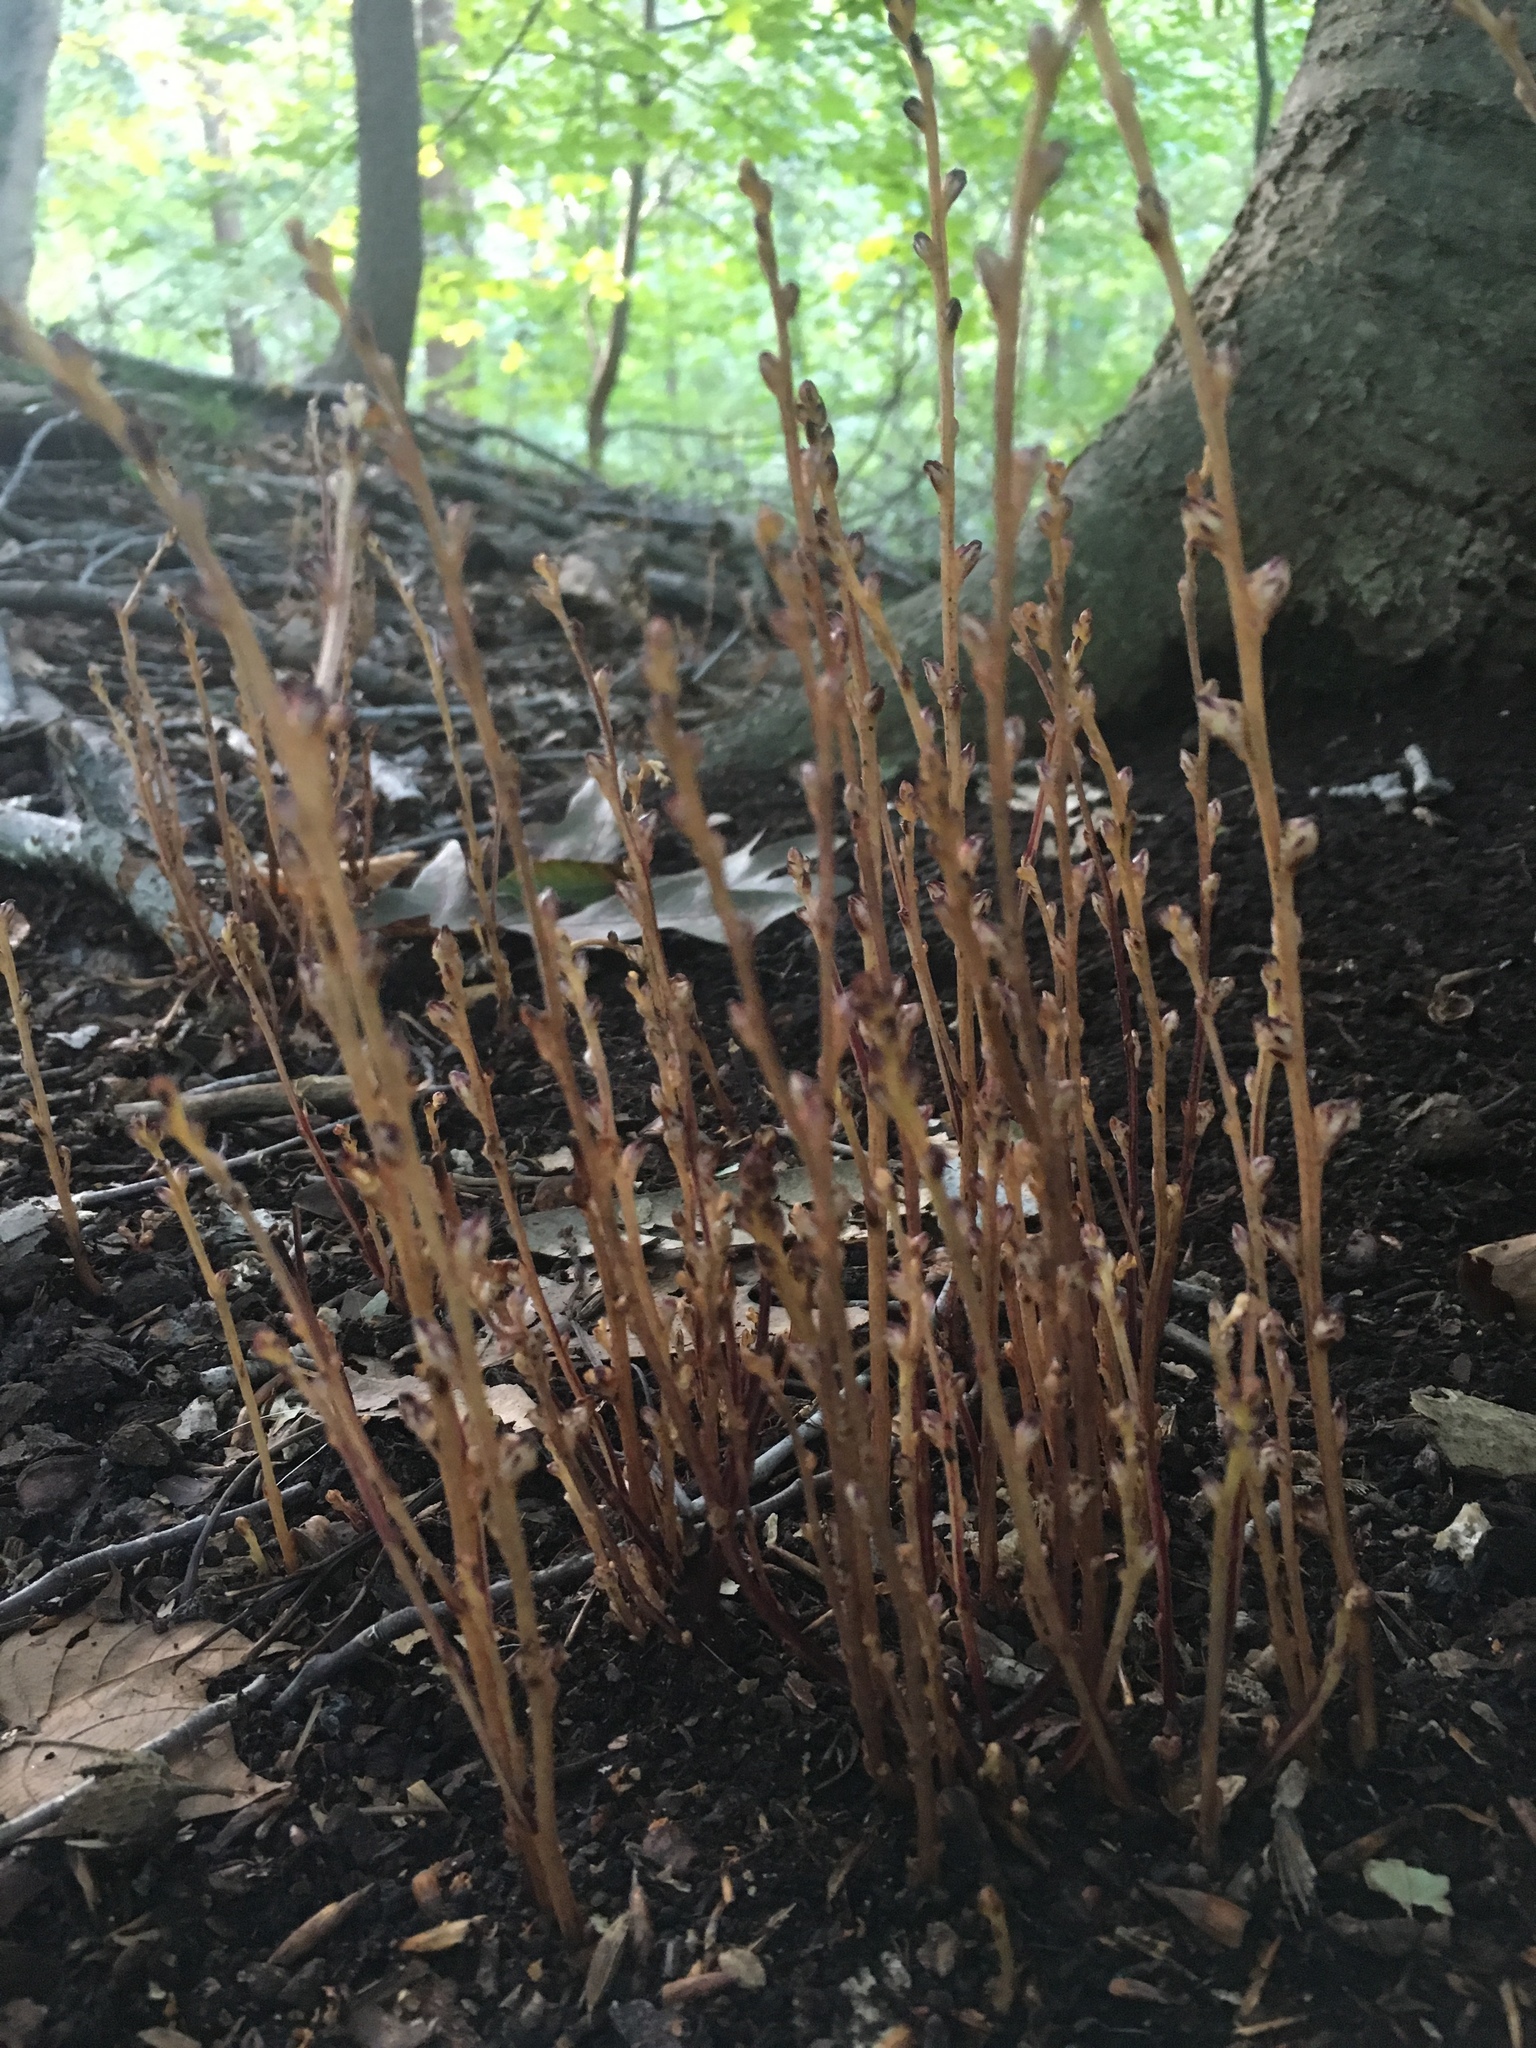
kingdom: Plantae
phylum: Tracheophyta
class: Magnoliopsida
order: Lamiales
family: Orobanchaceae
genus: Epifagus
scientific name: Epifagus virginiana
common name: Beechdrops
